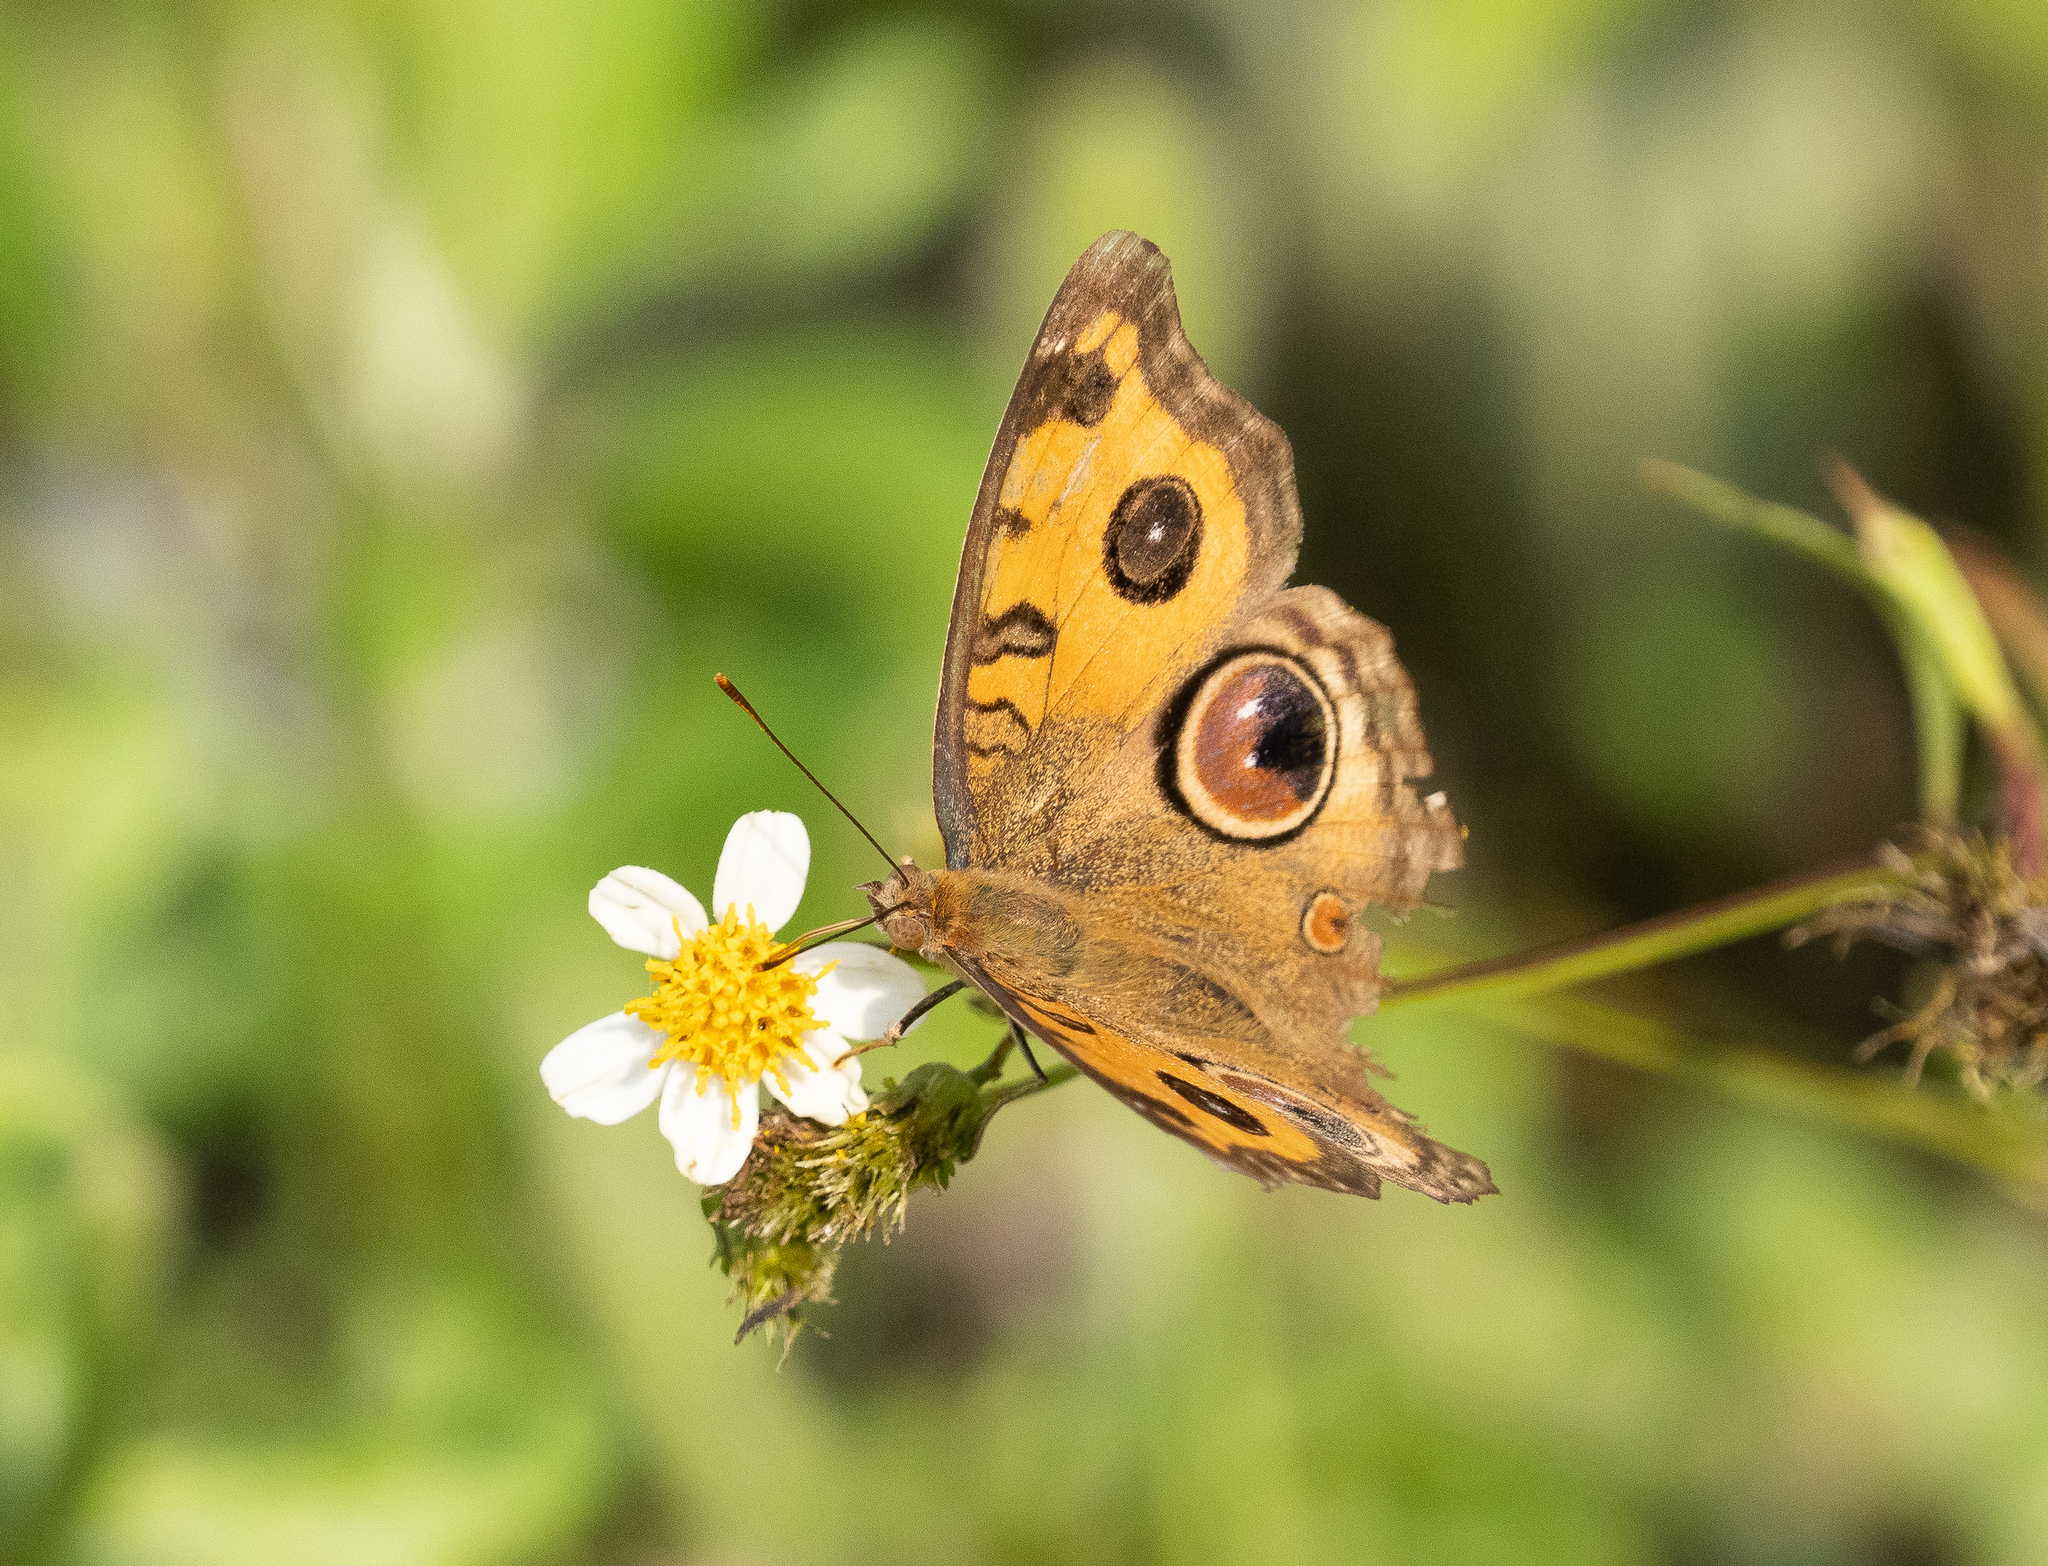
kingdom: Animalia
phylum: Arthropoda
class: Insecta
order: Lepidoptera
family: Nymphalidae
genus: Junonia
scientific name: Junonia almana
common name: Peacock pansy
